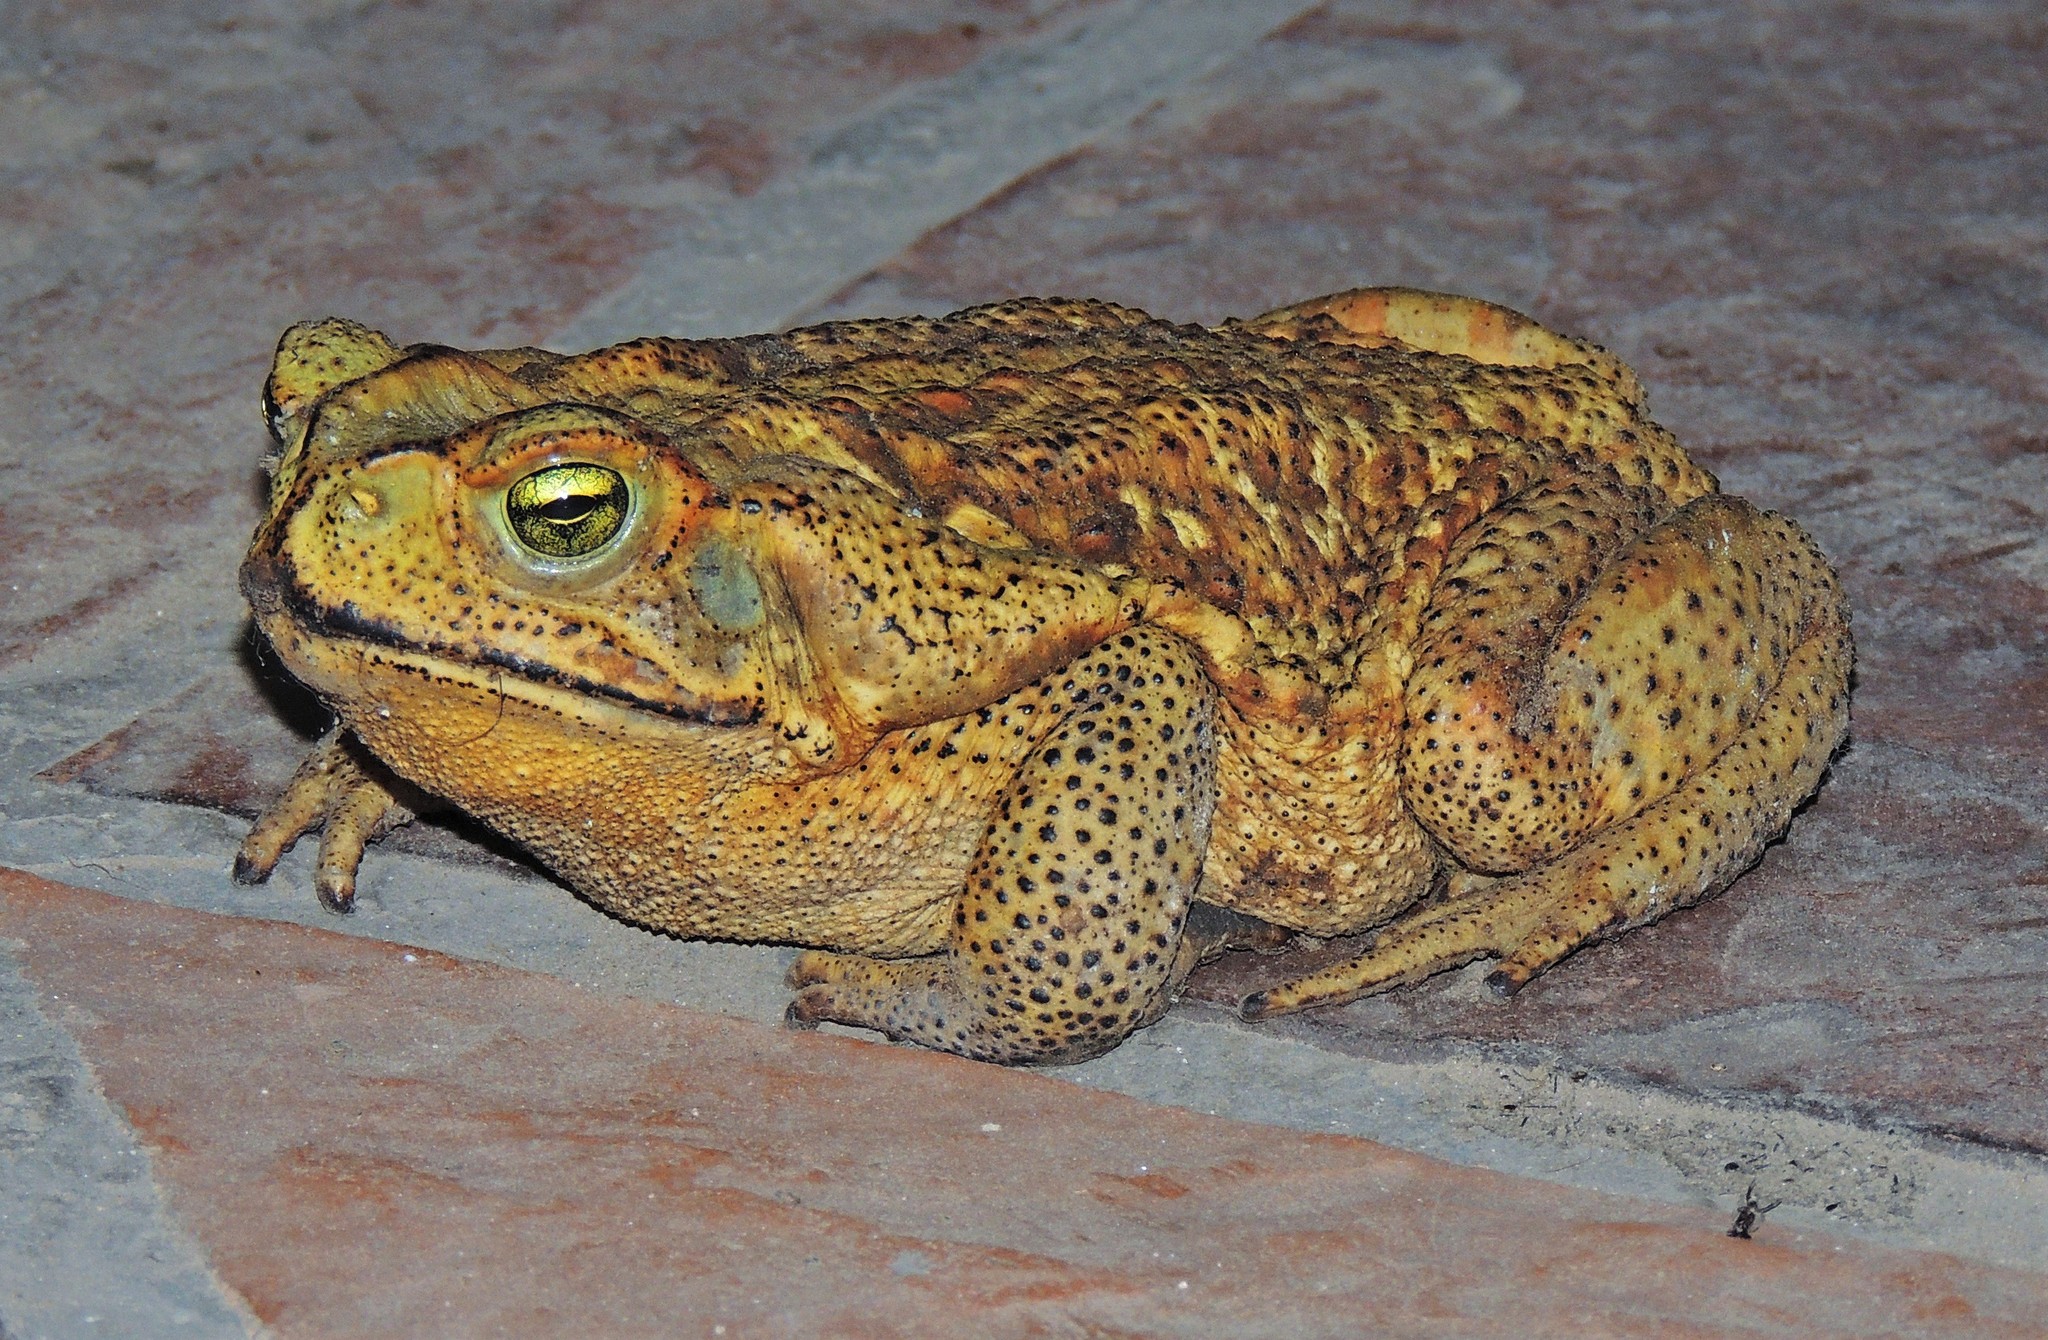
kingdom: Animalia
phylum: Chordata
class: Amphibia
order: Anura
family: Bufonidae
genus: Rhinella
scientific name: Rhinella diptycha
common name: Cope's toad
